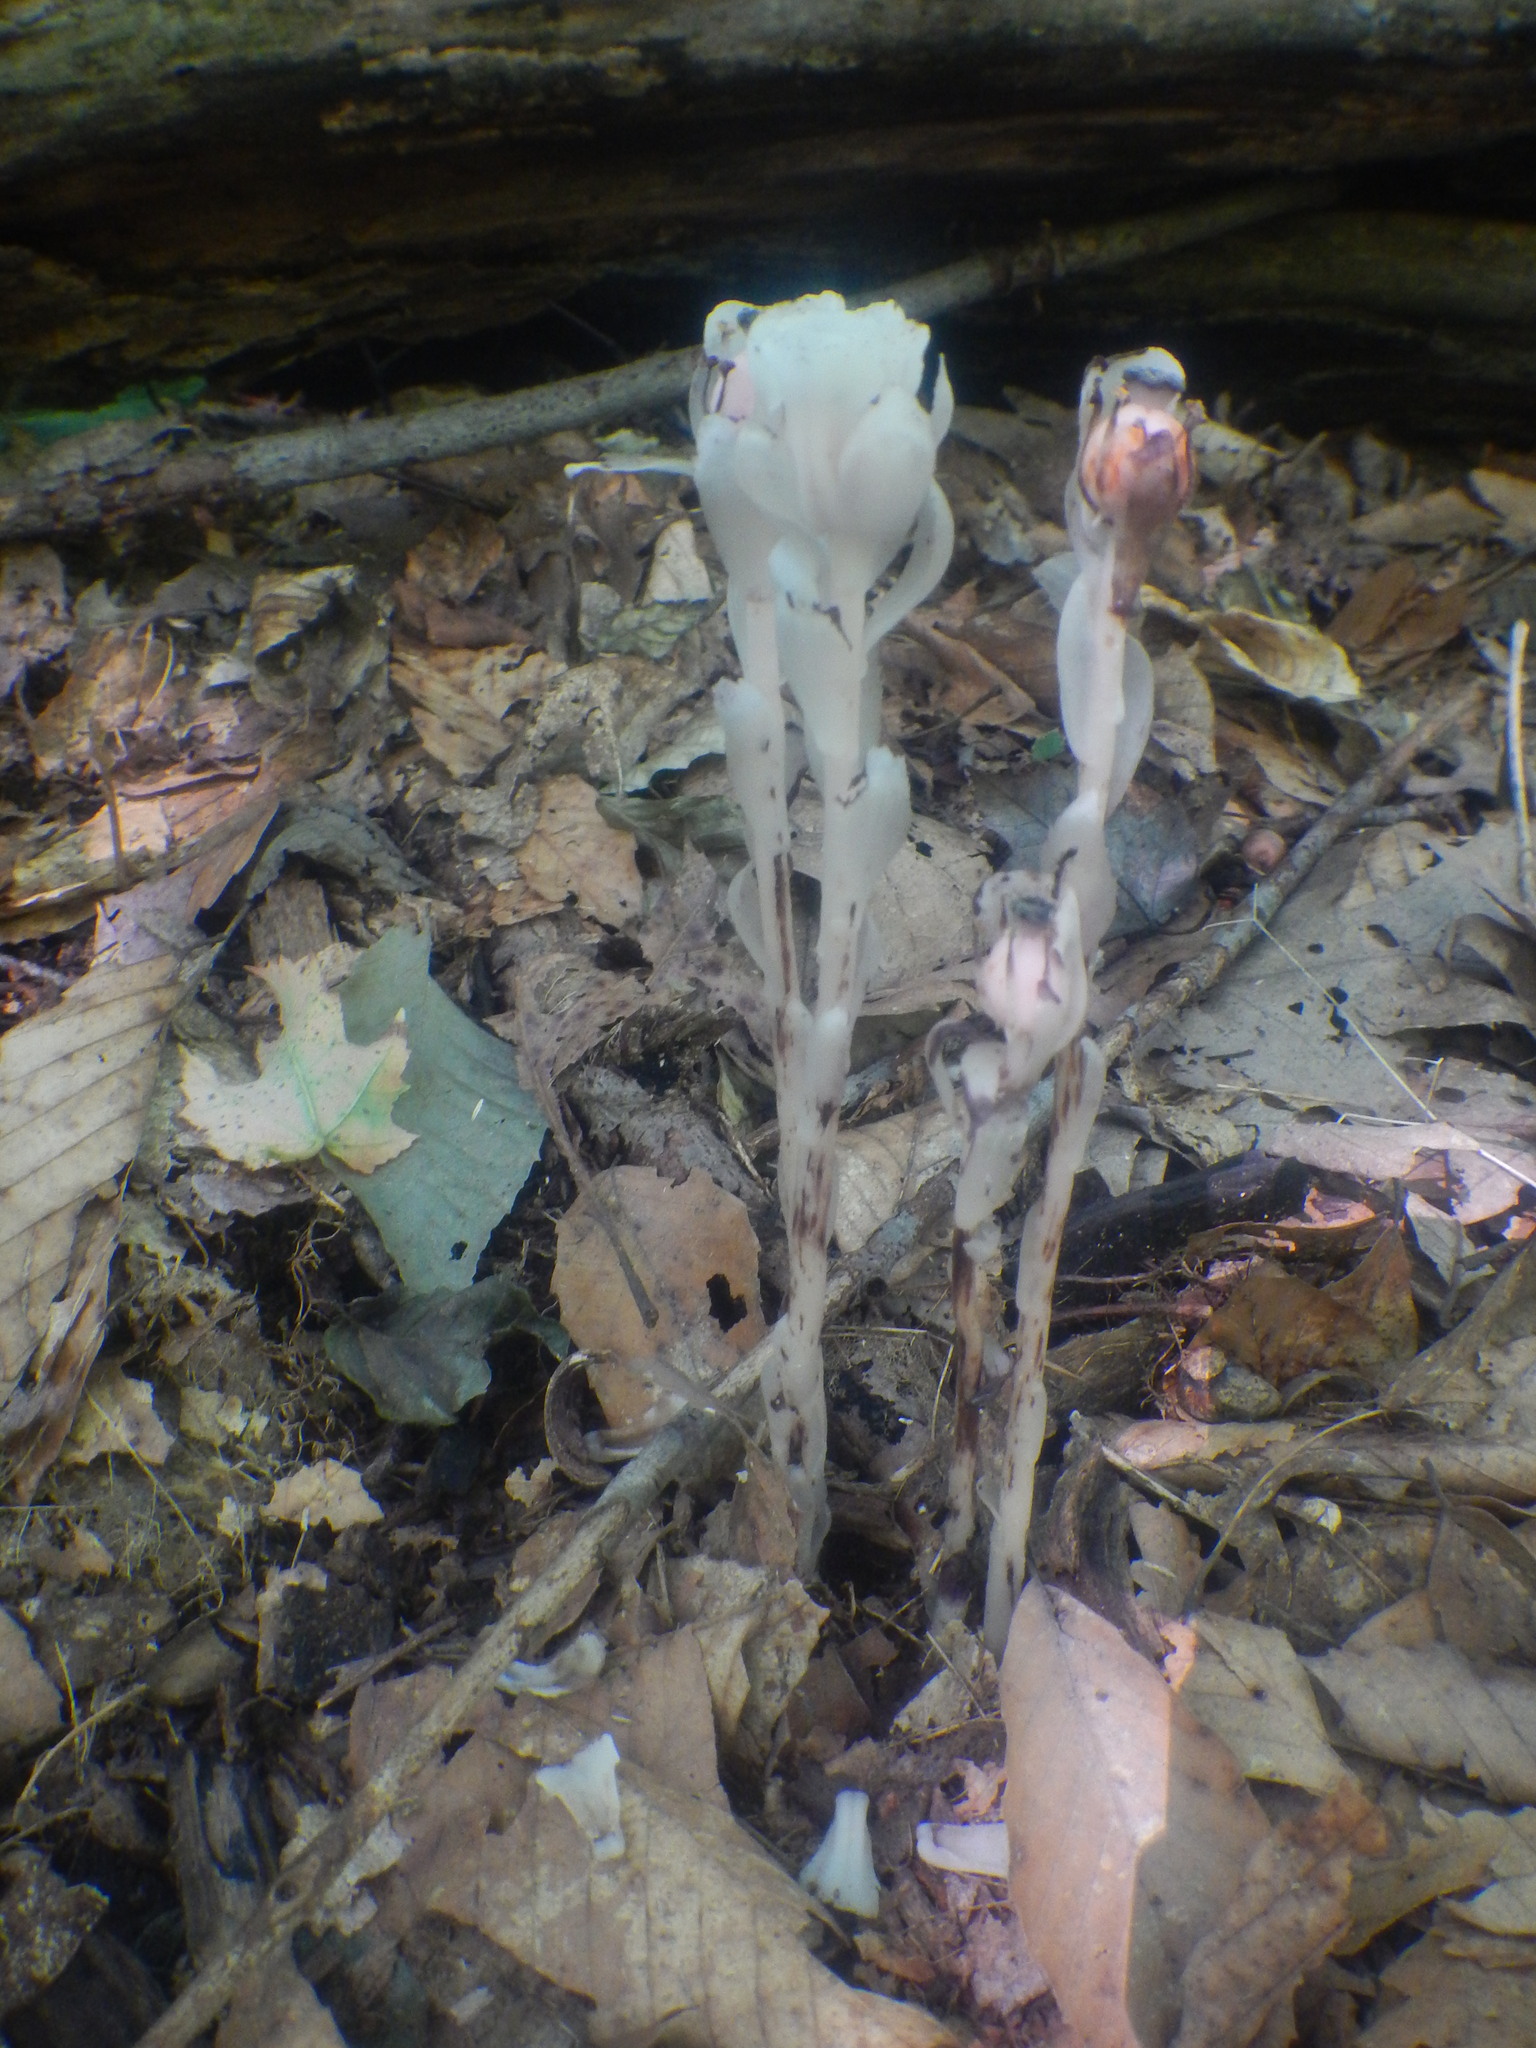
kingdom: Plantae
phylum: Tracheophyta
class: Magnoliopsida
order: Ericales
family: Ericaceae
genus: Monotropa
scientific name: Monotropa uniflora
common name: Convulsion root
